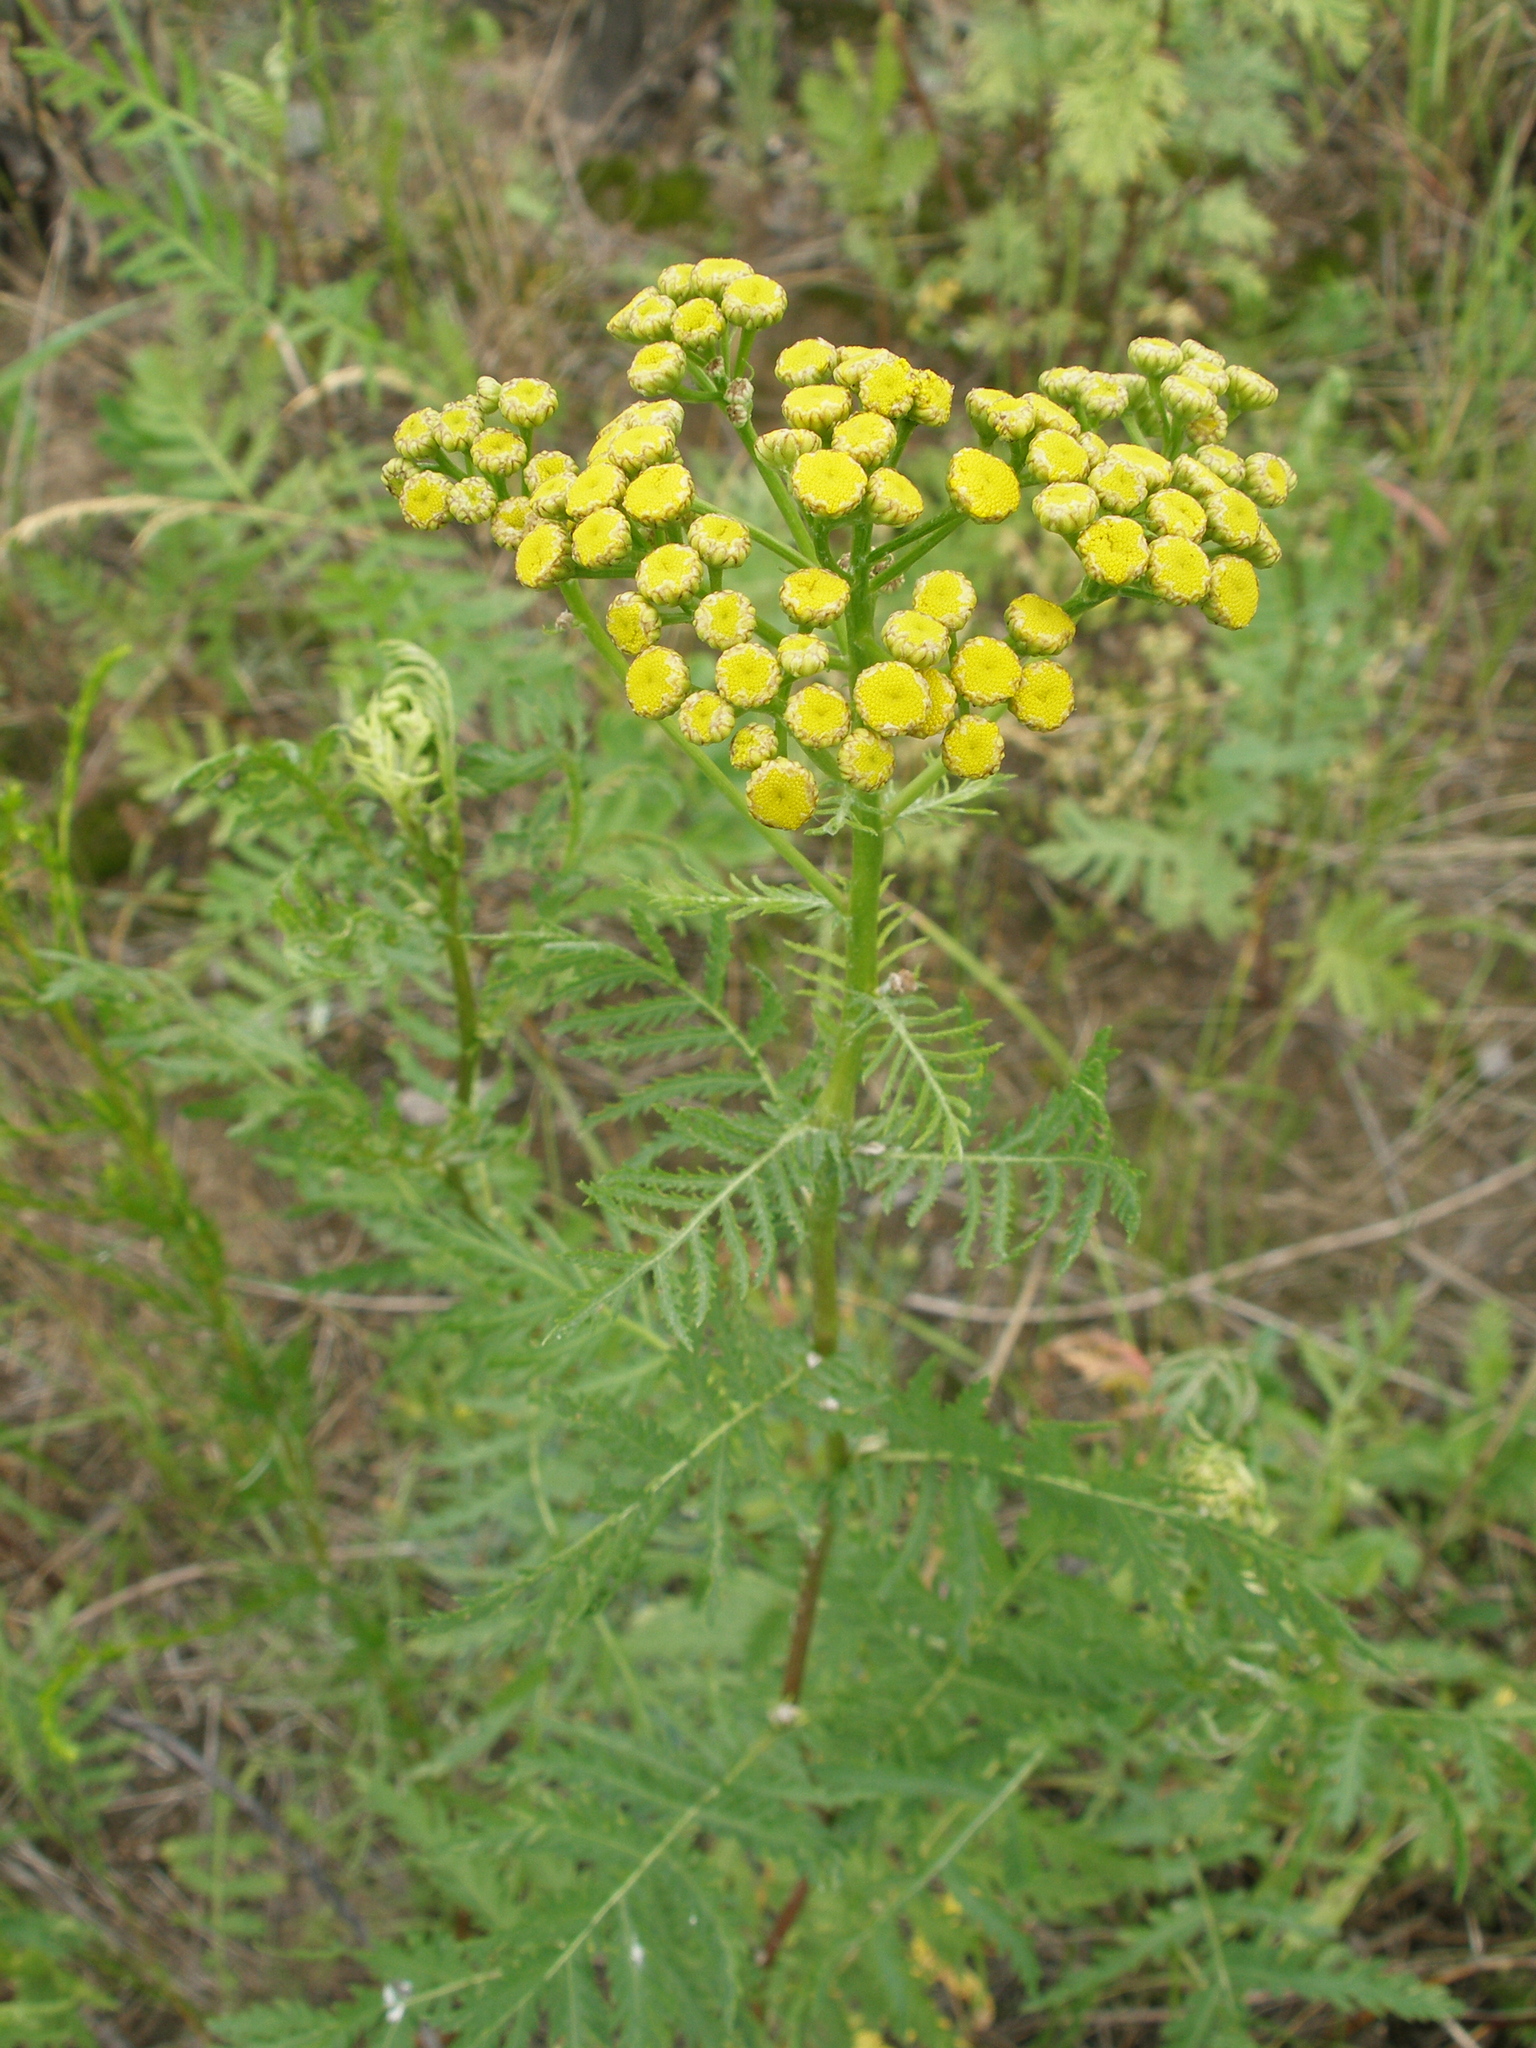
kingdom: Plantae
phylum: Tracheophyta
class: Magnoliopsida
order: Asterales
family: Asteraceae
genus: Tanacetum
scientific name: Tanacetum vulgare
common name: Common tansy
